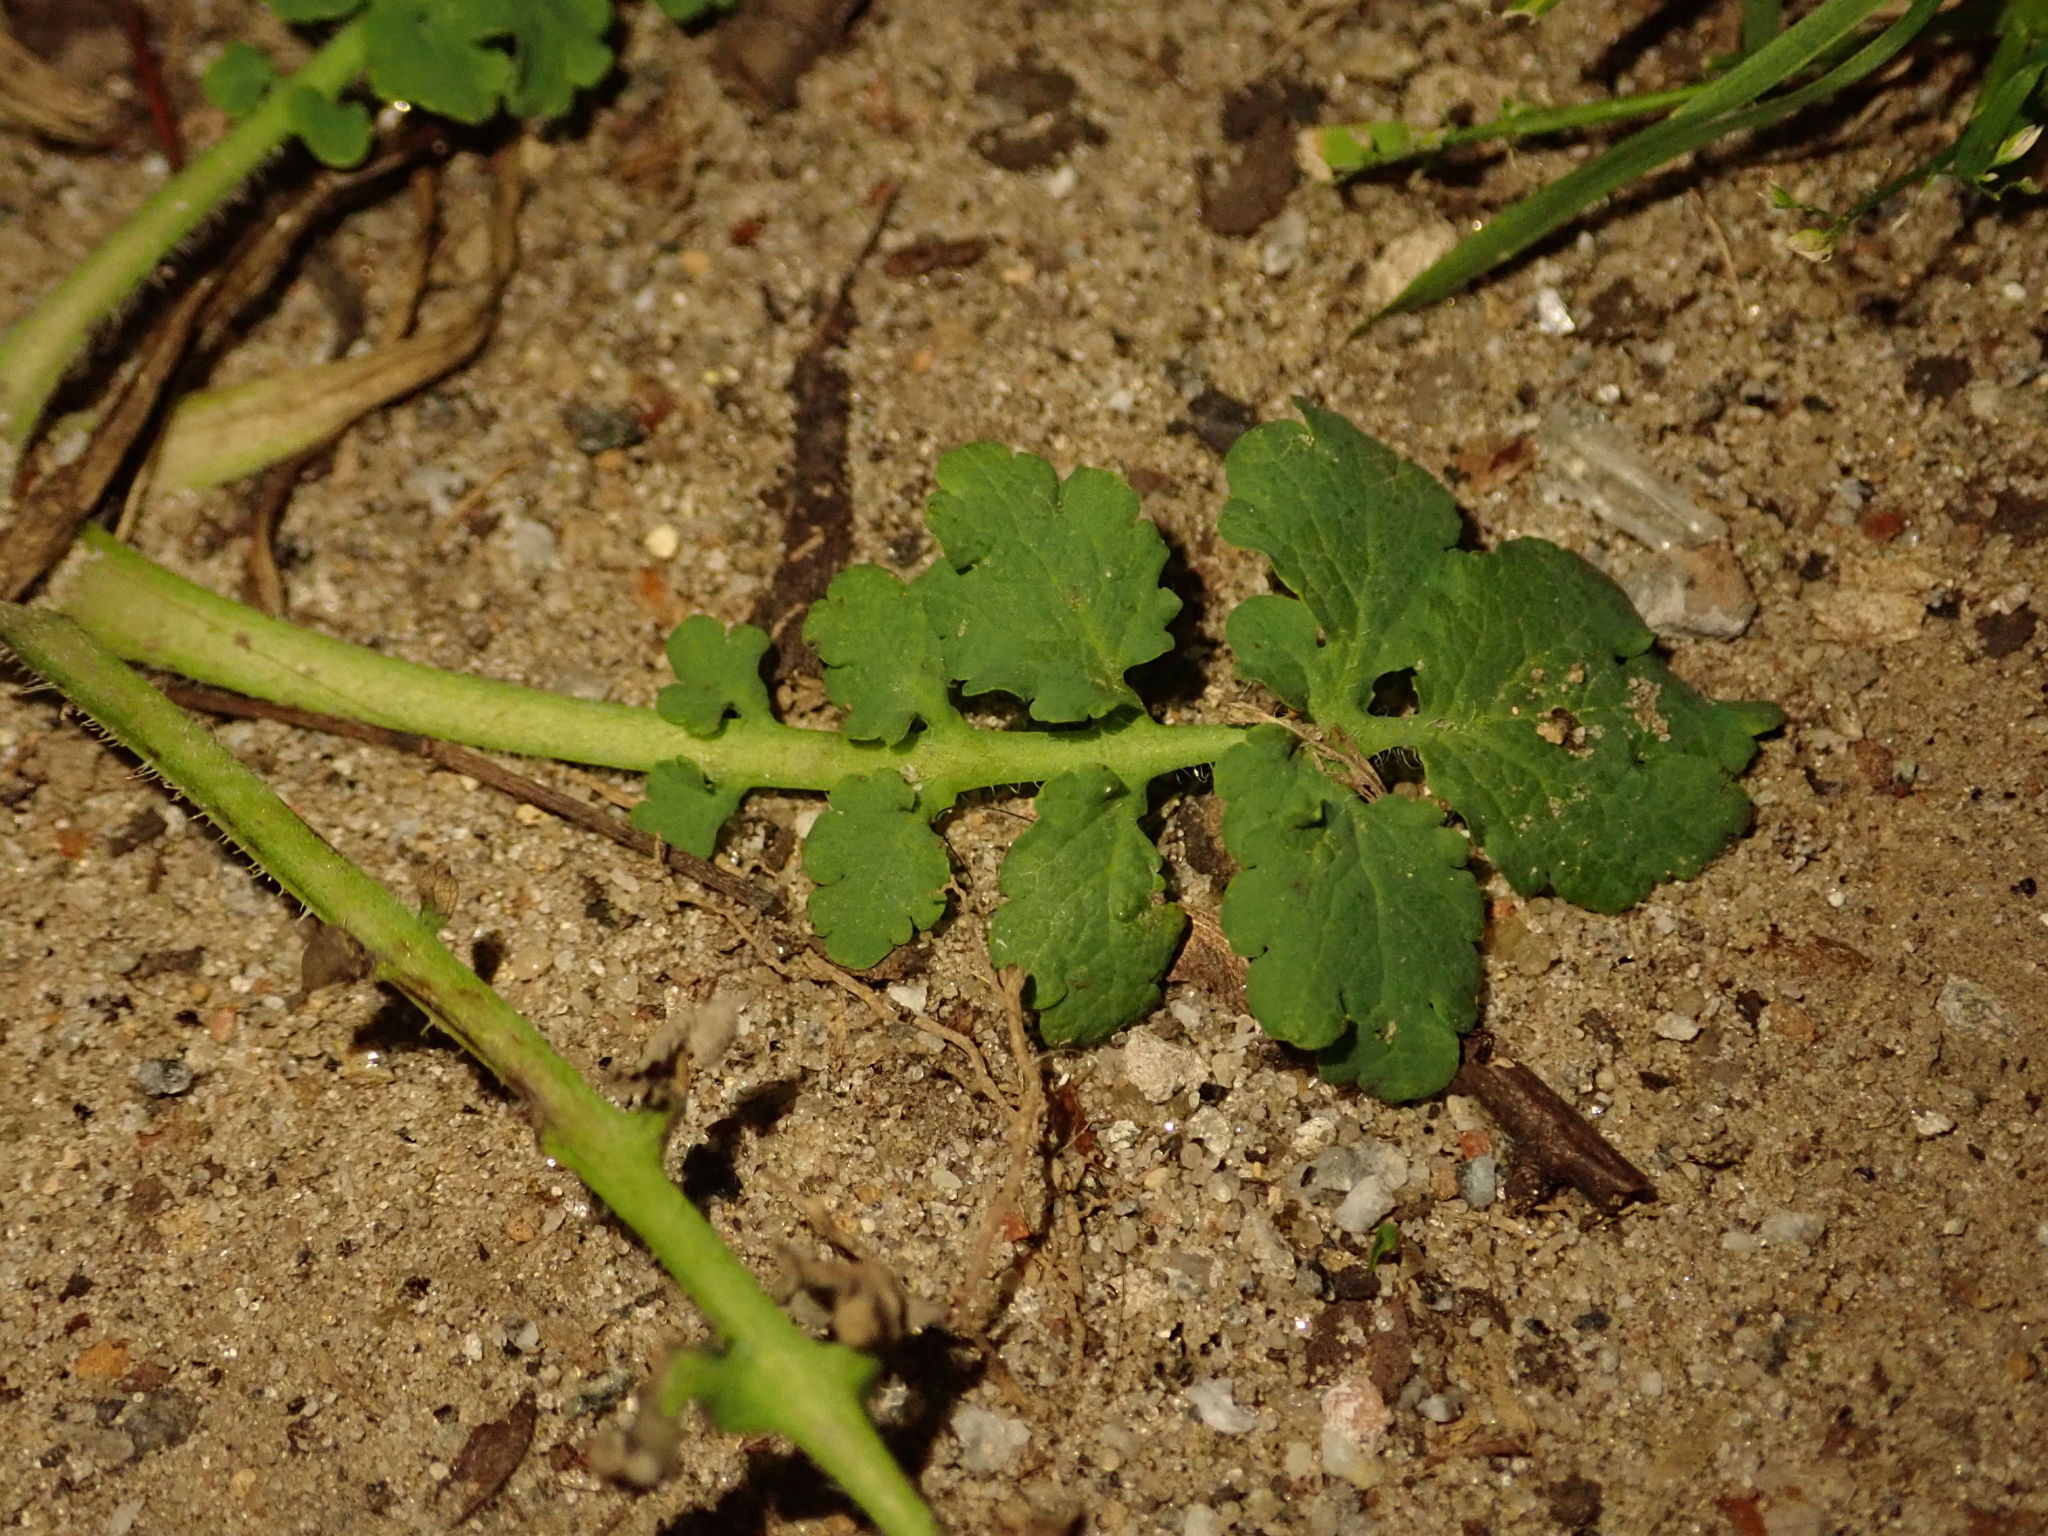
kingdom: Plantae
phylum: Tracheophyta
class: Magnoliopsida
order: Ranunculales
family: Papaveraceae
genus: Chelidonium
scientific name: Chelidonium majus
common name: Greater celandine
